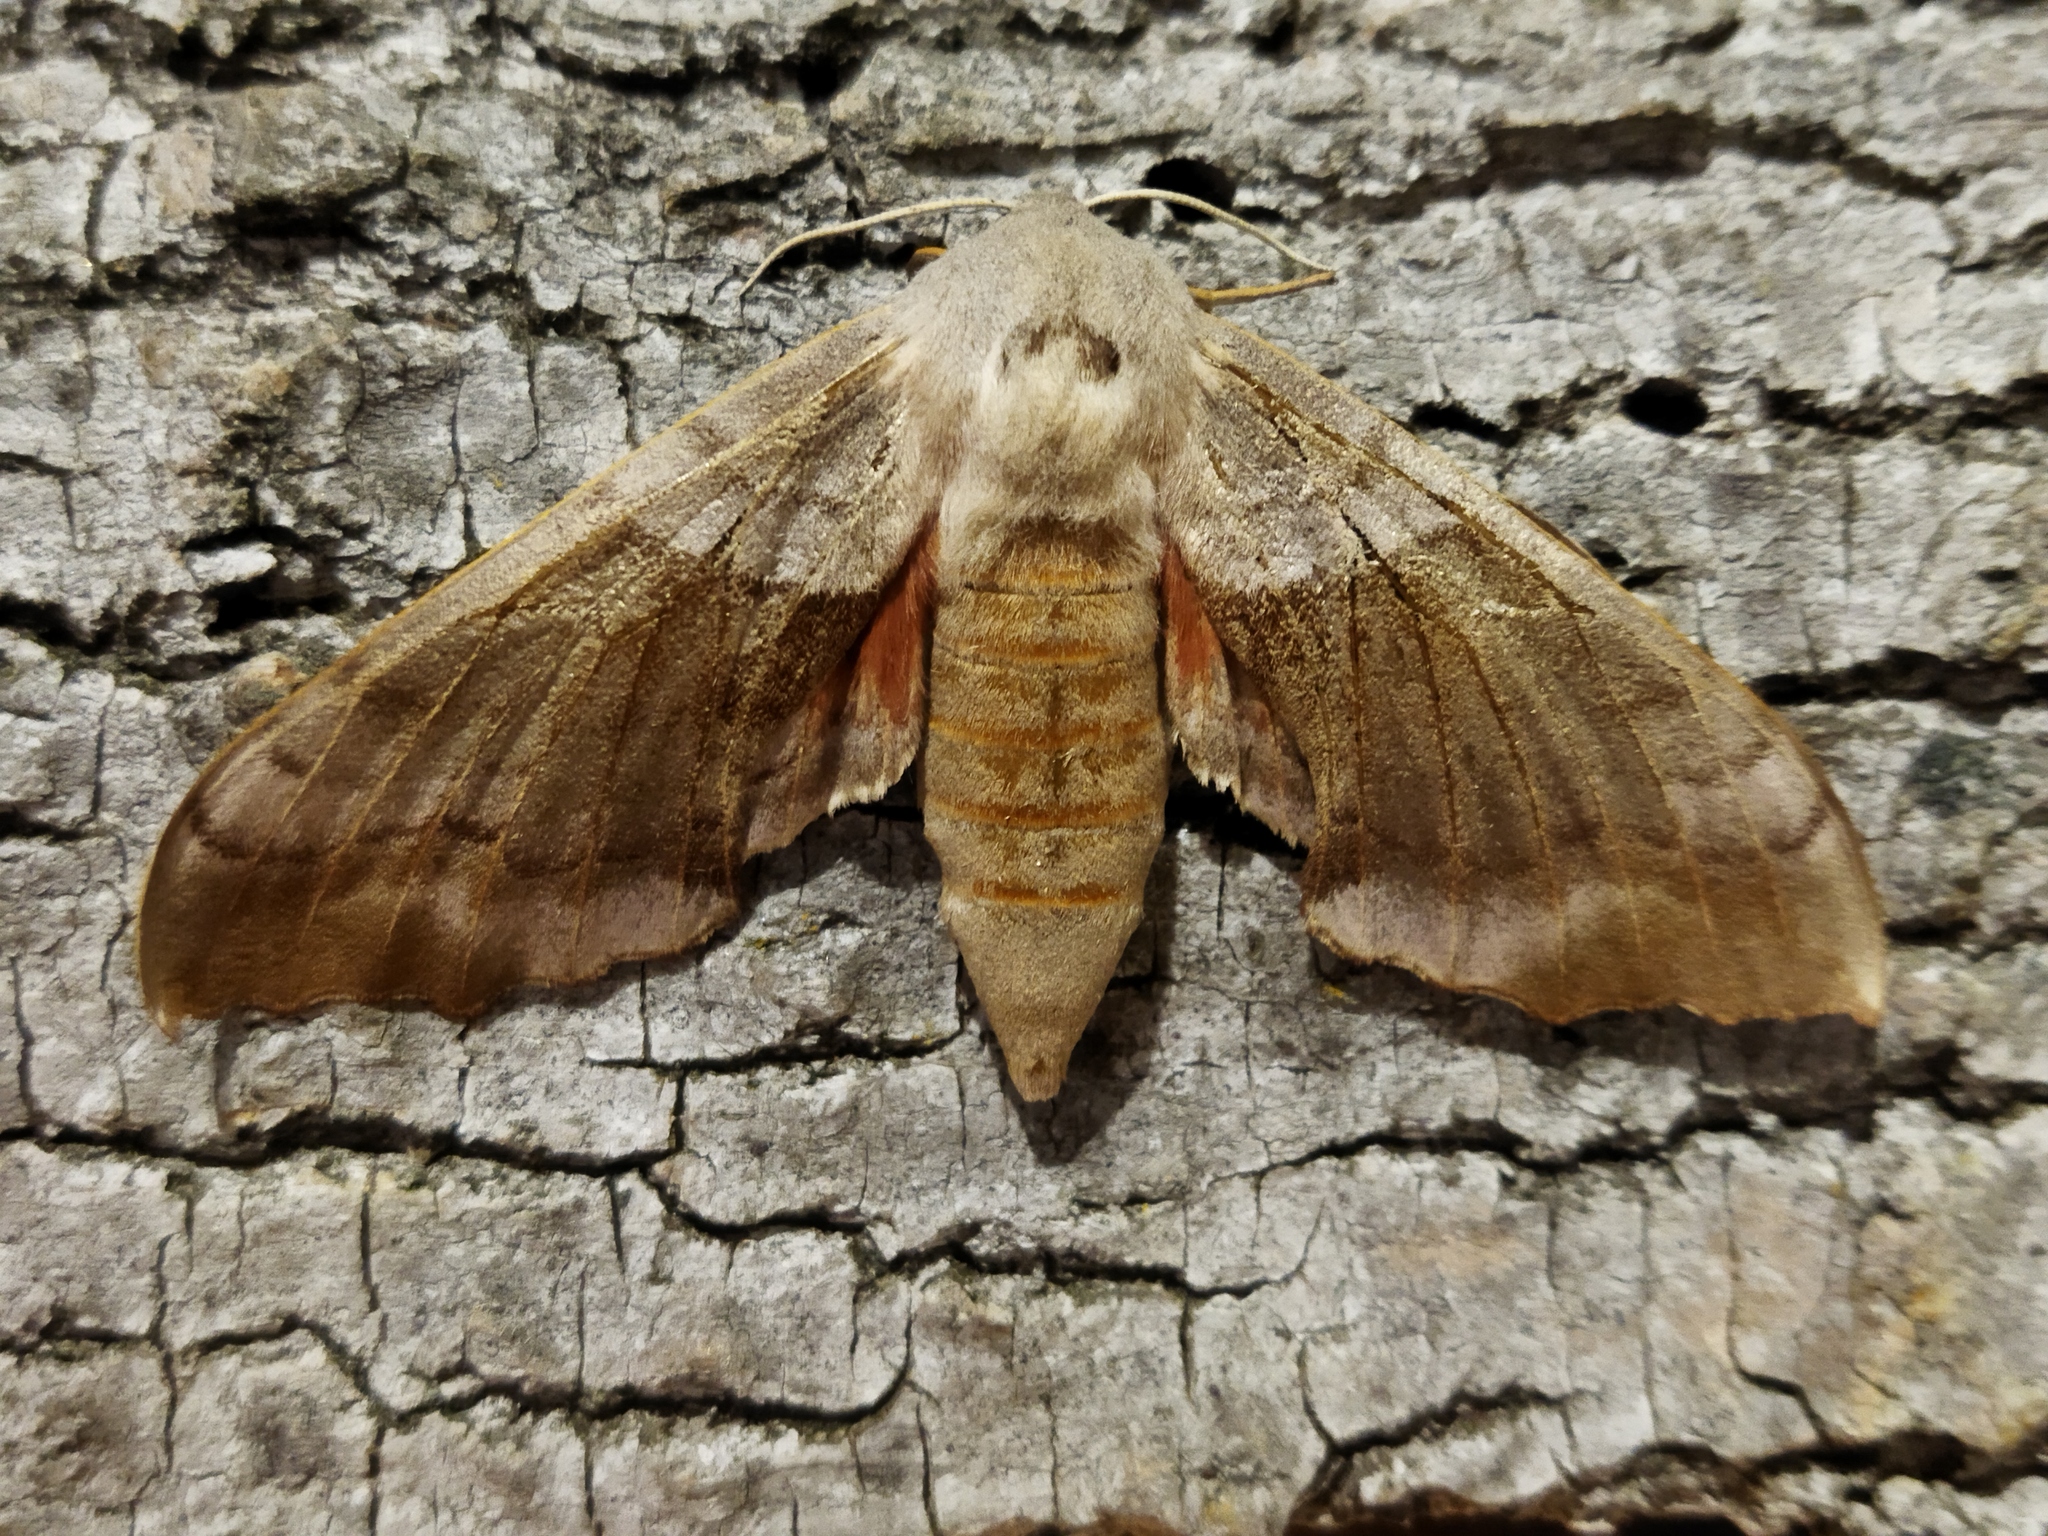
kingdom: Animalia
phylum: Arthropoda
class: Insecta
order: Lepidoptera
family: Sphingidae
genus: Laothoe
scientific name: Laothoe populi
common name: Poplar hawk-moth
